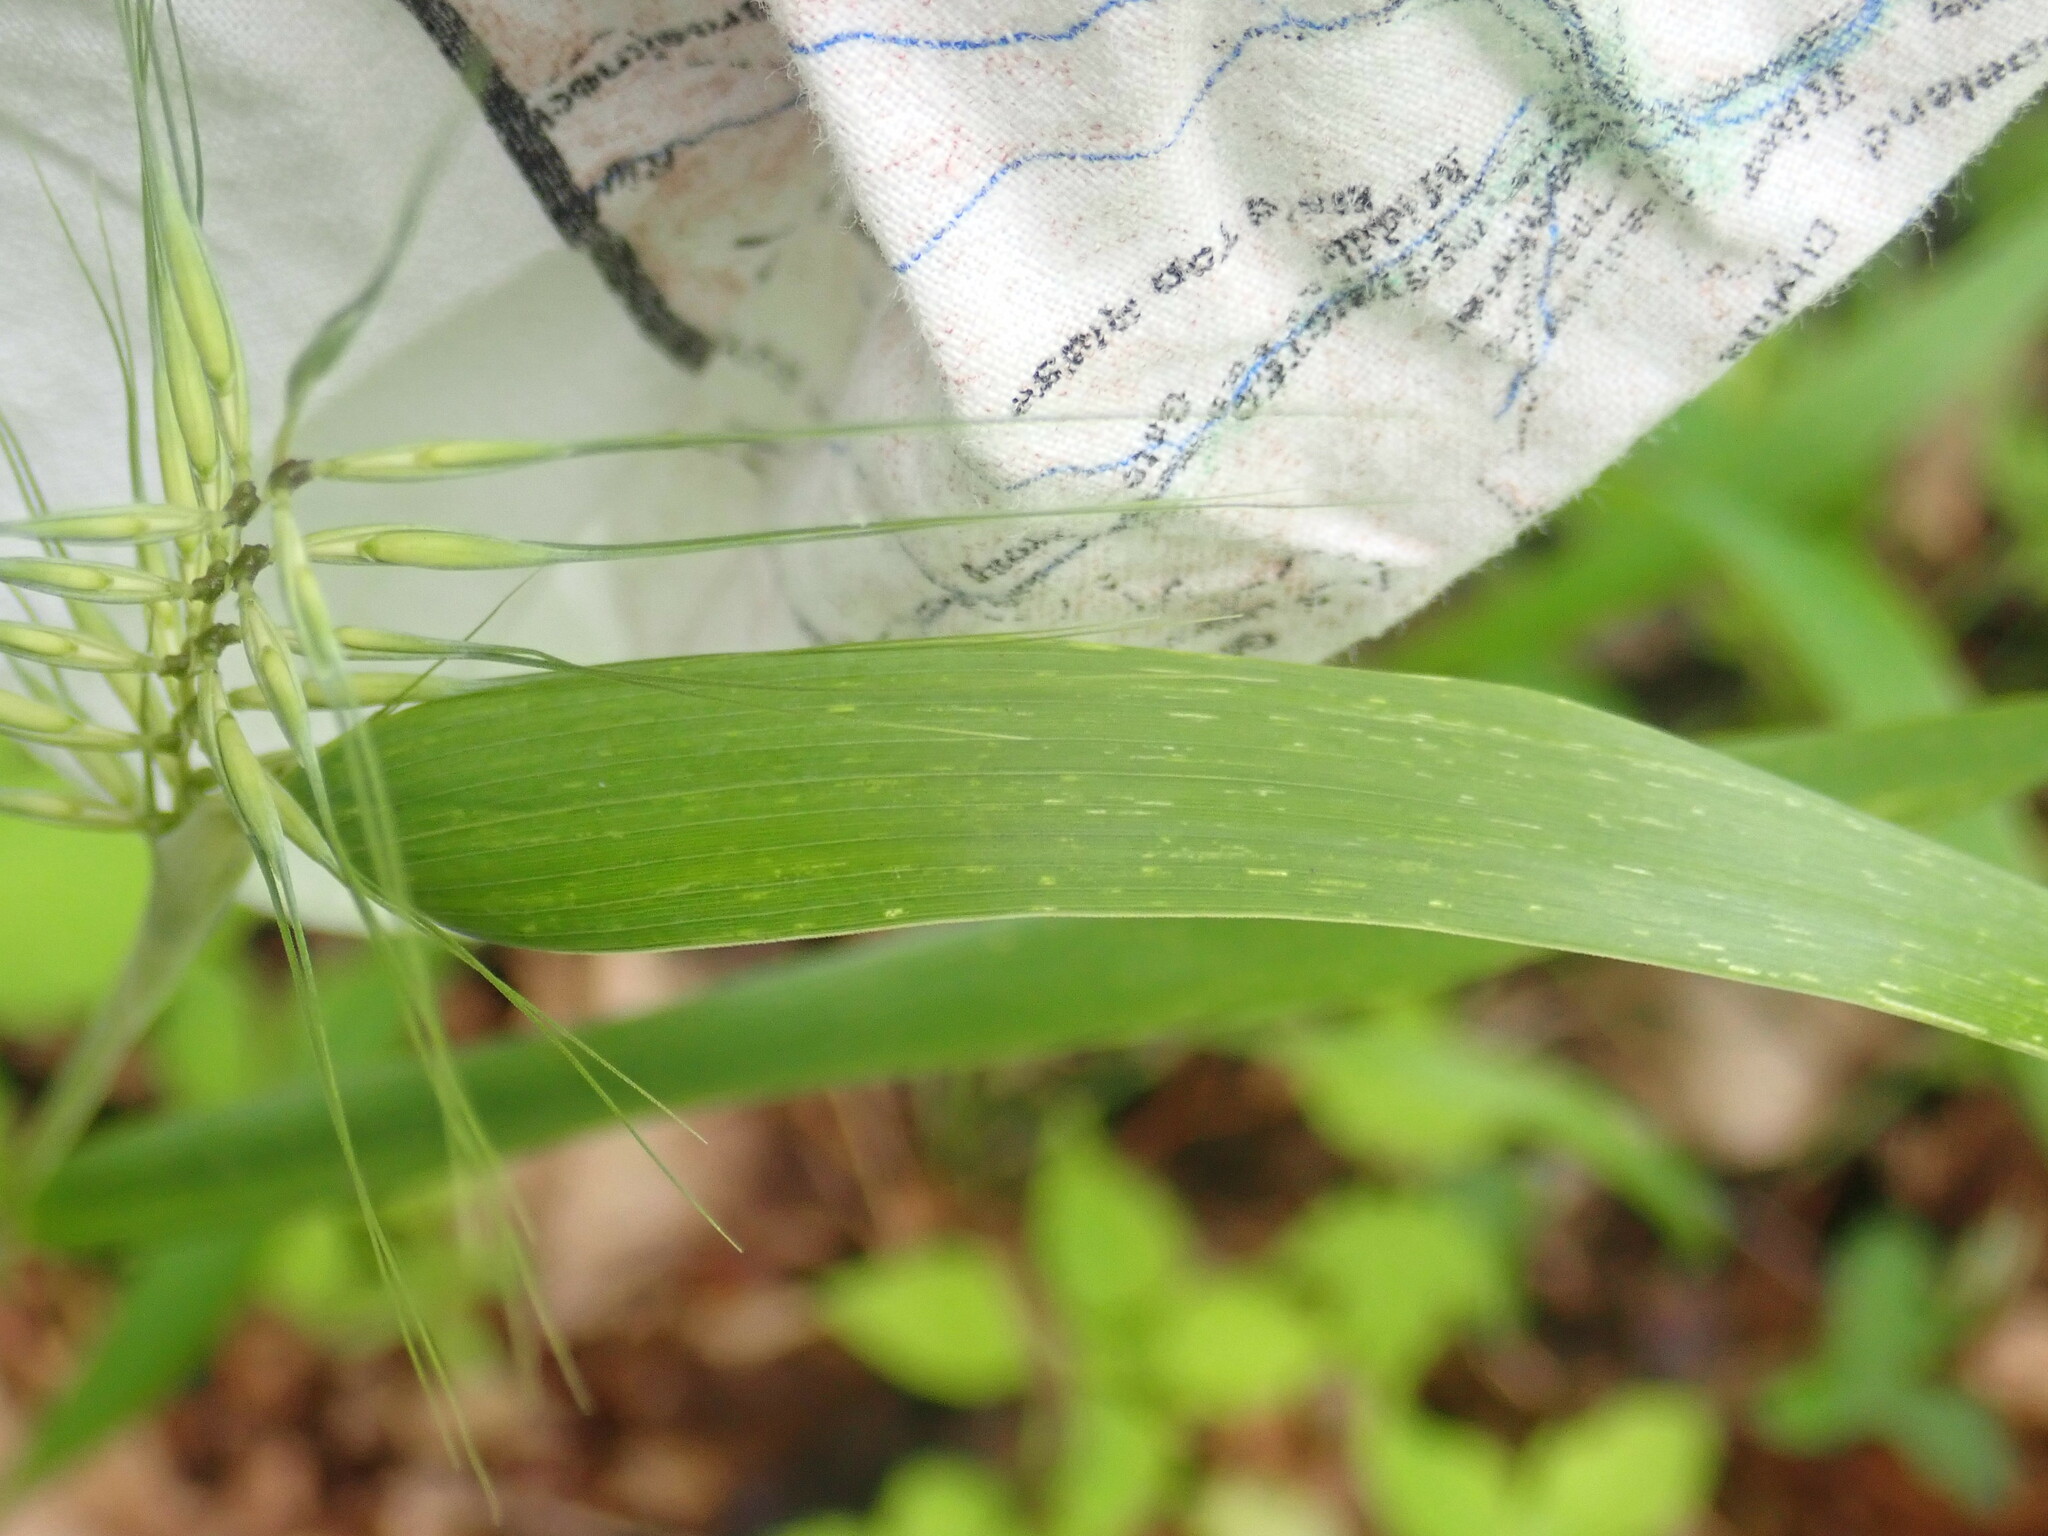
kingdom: Plantae
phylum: Tracheophyta
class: Liliopsida
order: Poales
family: Poaceae
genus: Elymus
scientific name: Elymus hystrix
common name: Bottlebrush grass
